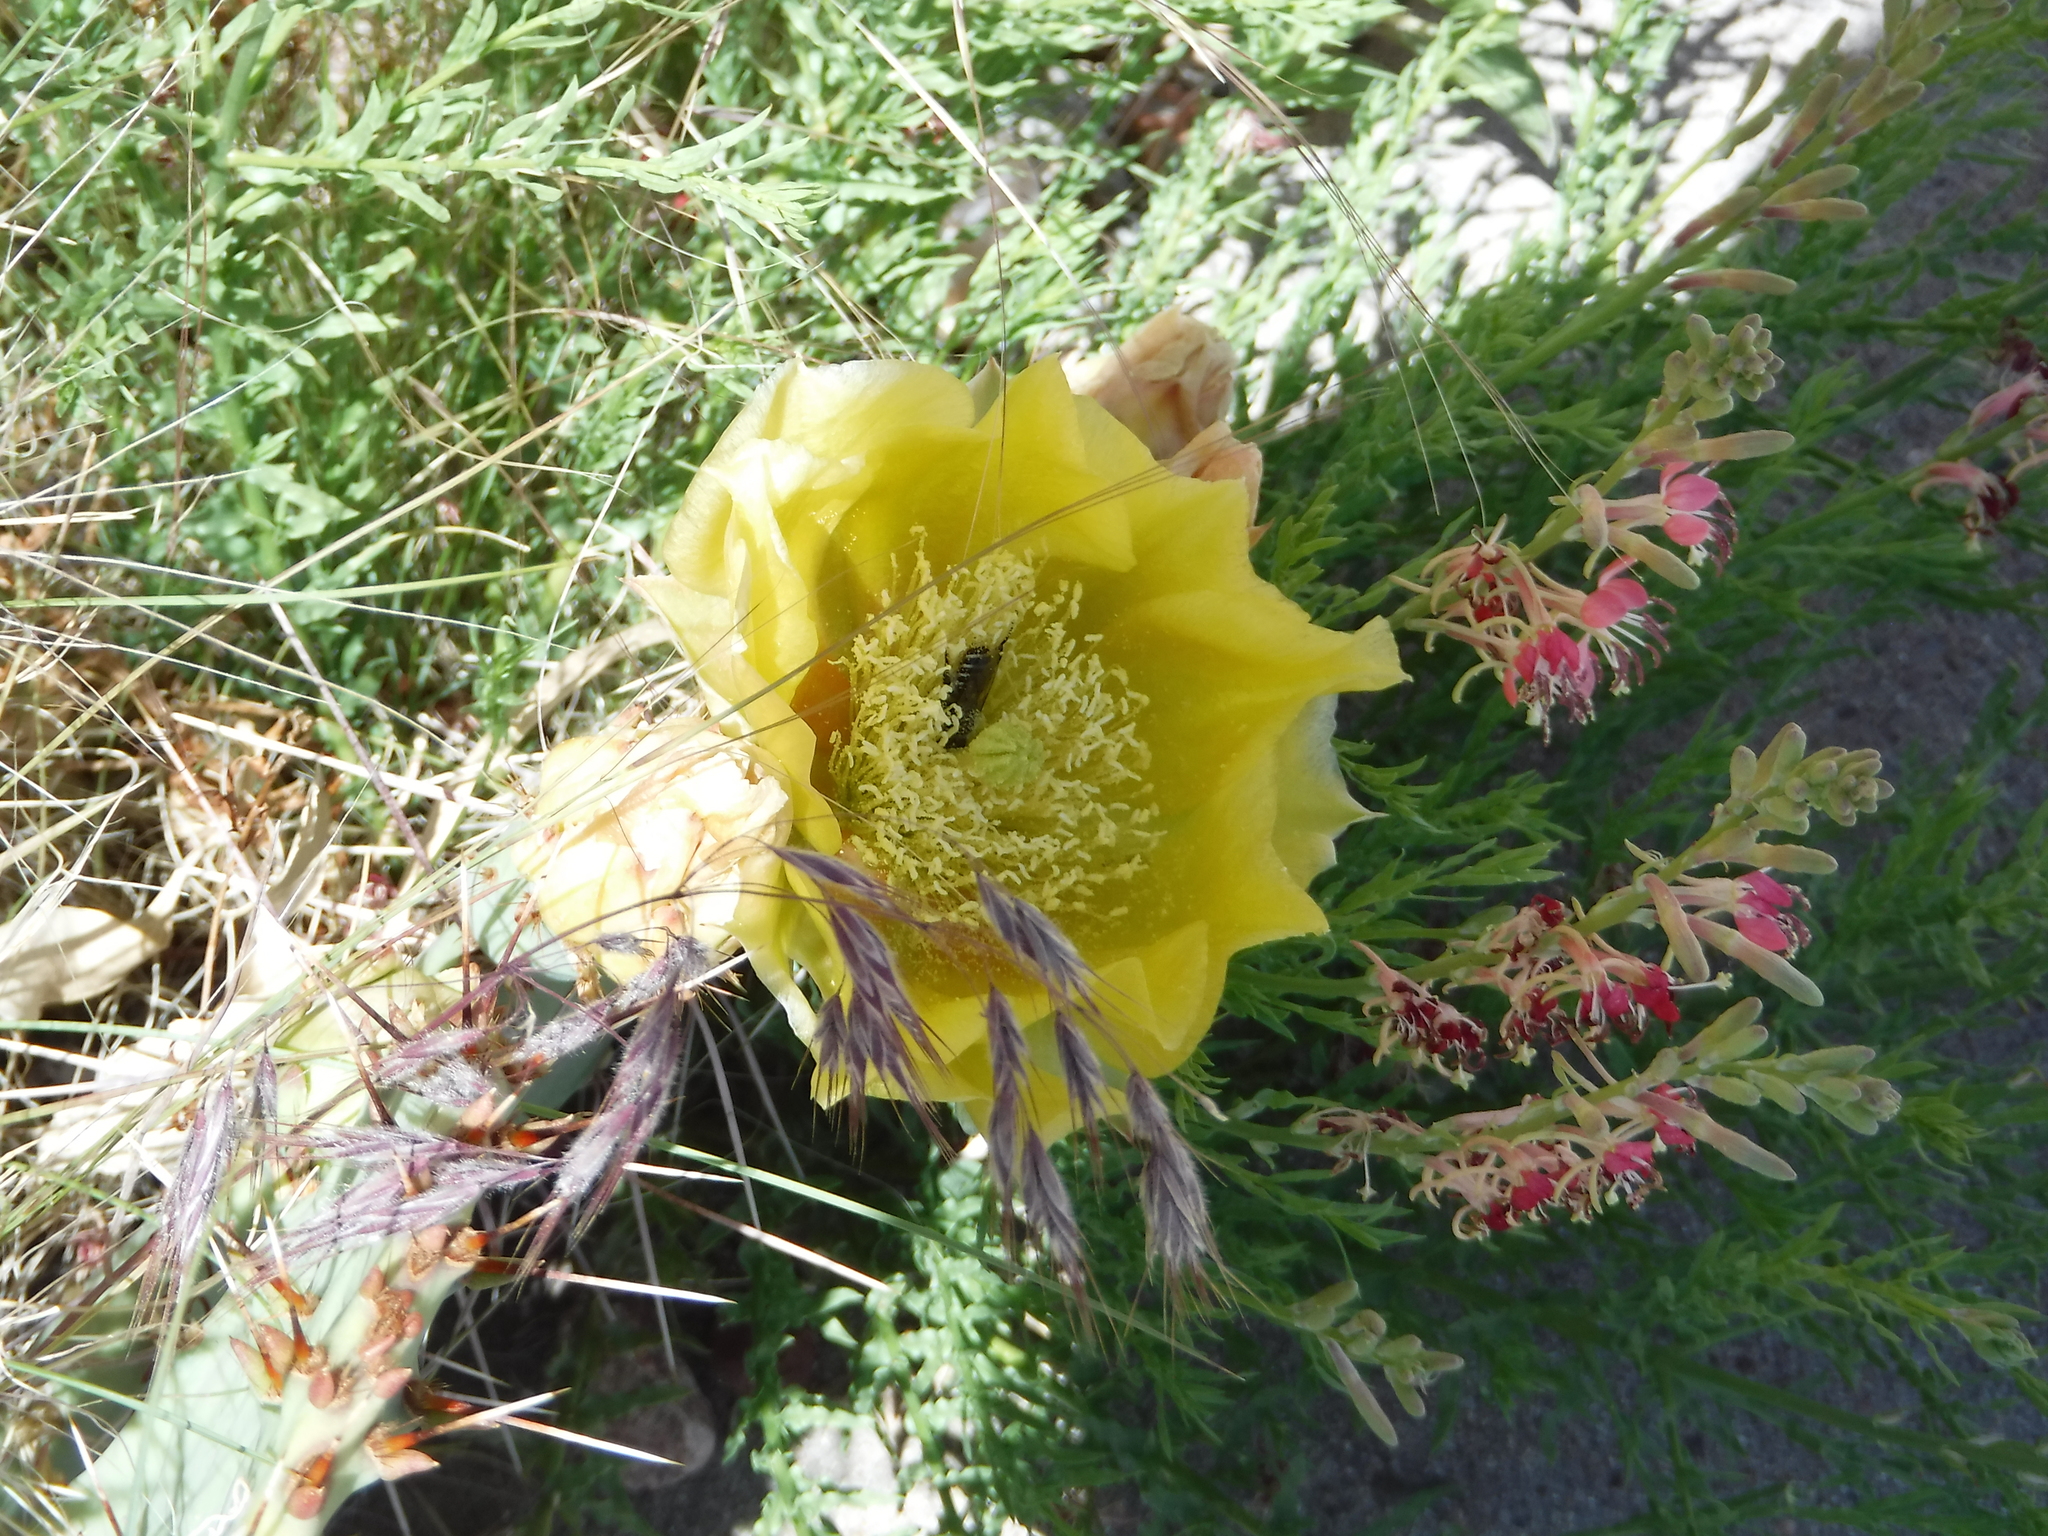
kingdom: Animalia
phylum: Arthropoda
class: Insecta
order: Hymenoptera
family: Megachilidae
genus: Lithurgopsis
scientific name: Lithurgopsis apicalis
